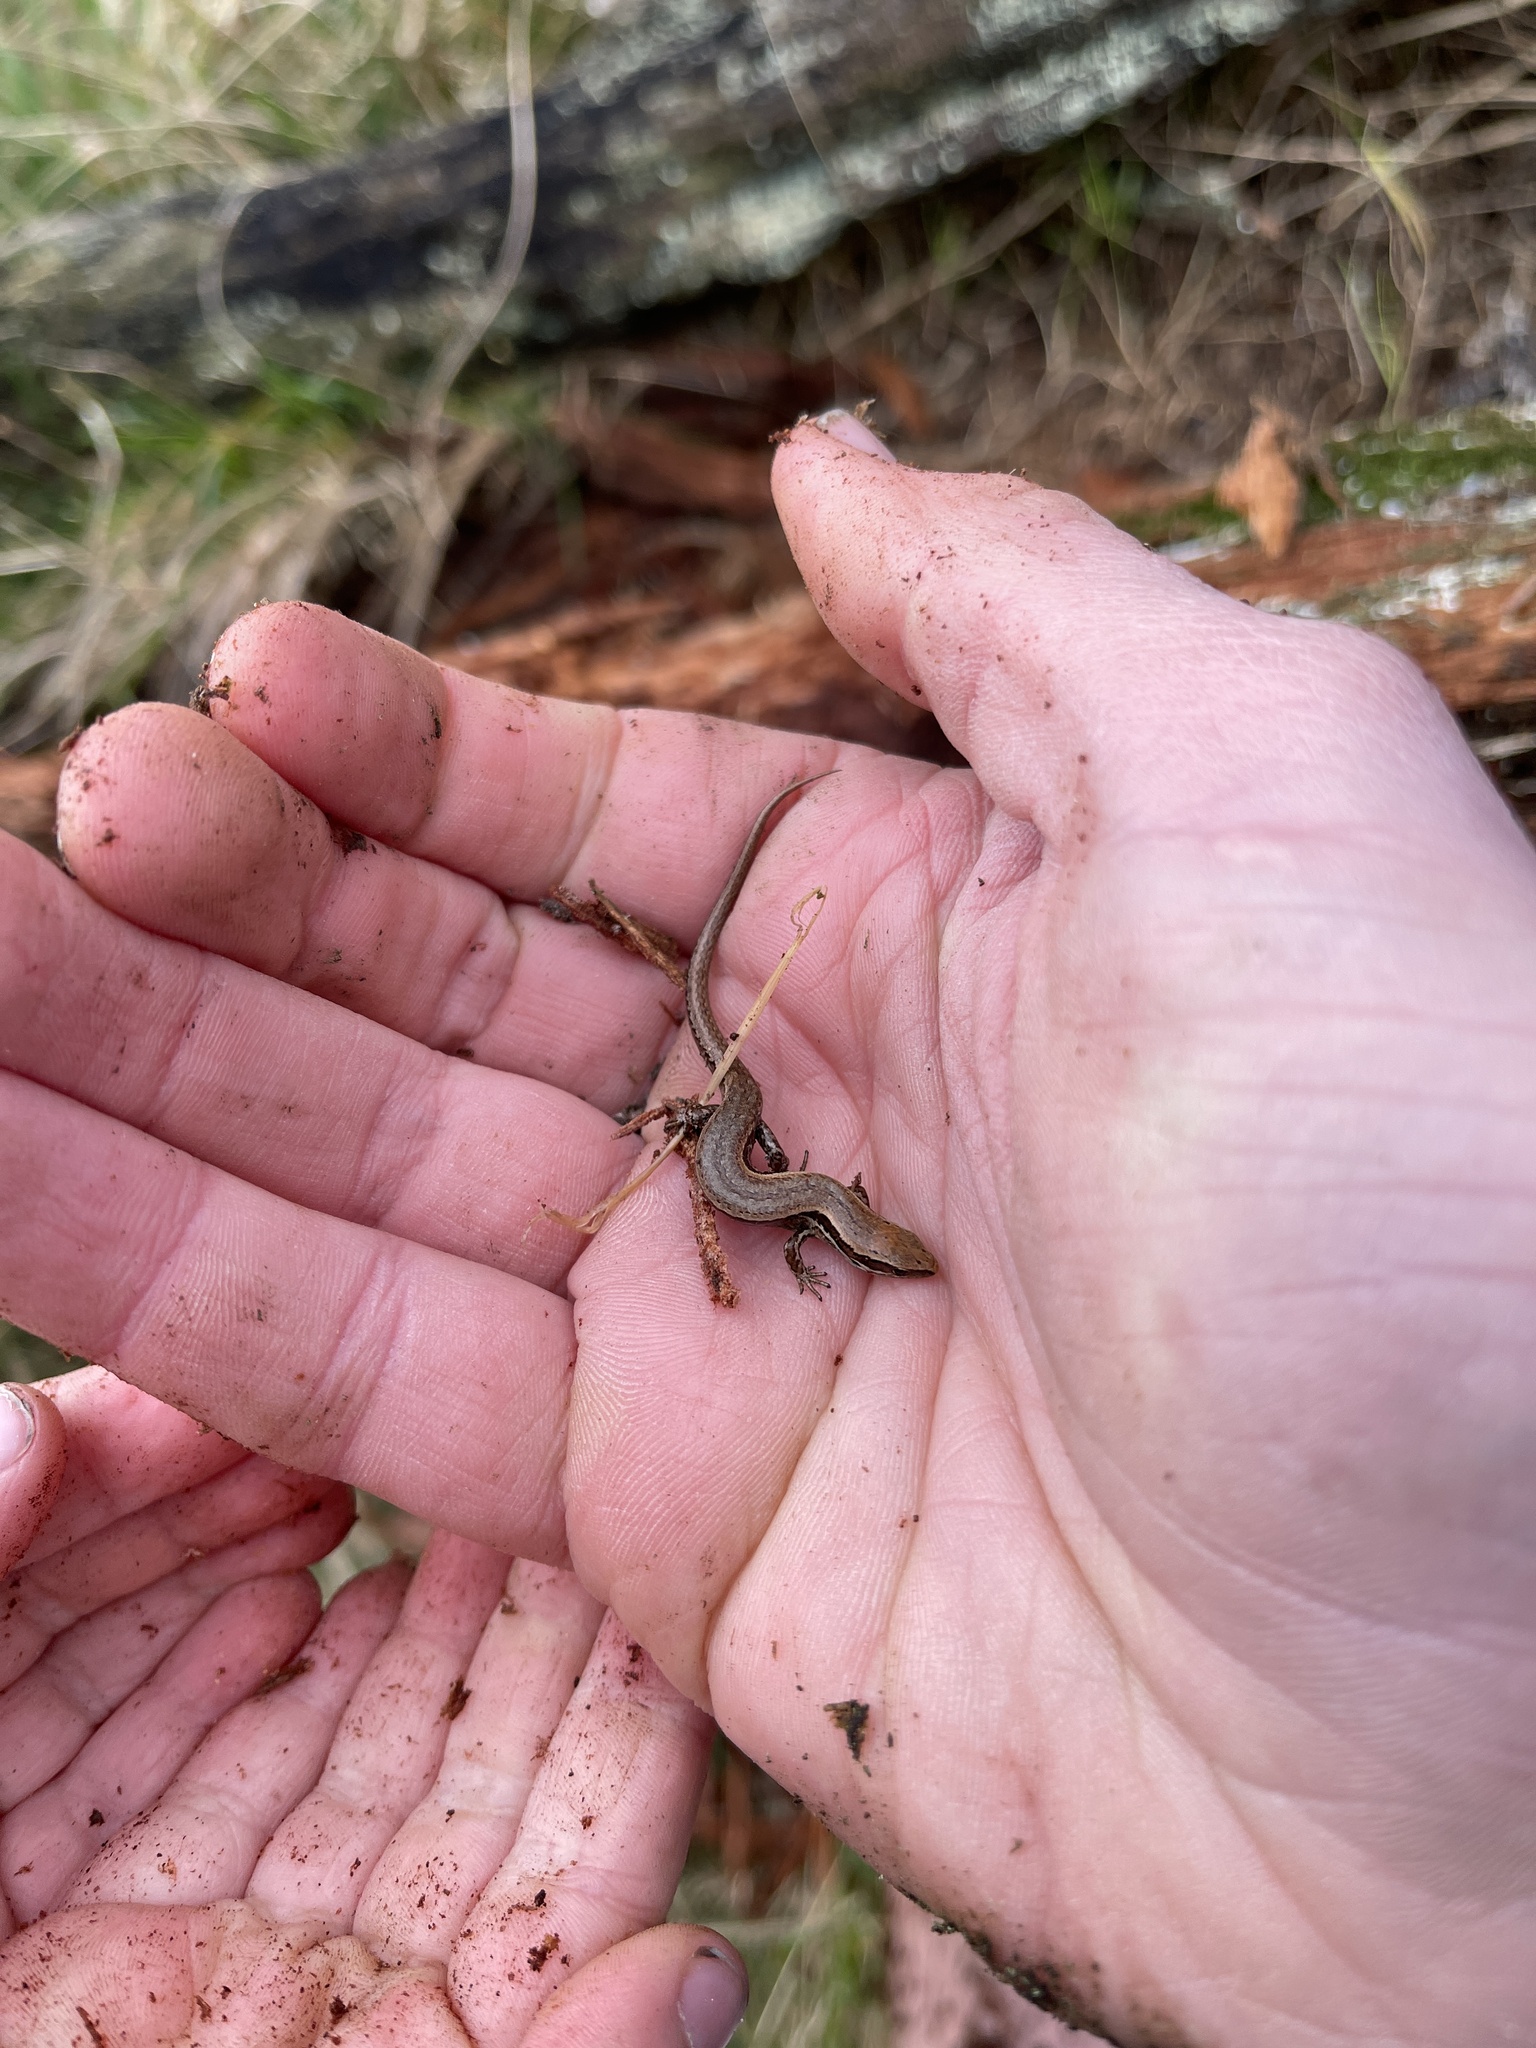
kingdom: Animalia
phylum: Chordata
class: Squamata
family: Scincidae
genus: Oligosoma
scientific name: Oligosoma polychroma
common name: Common new zealand skink
